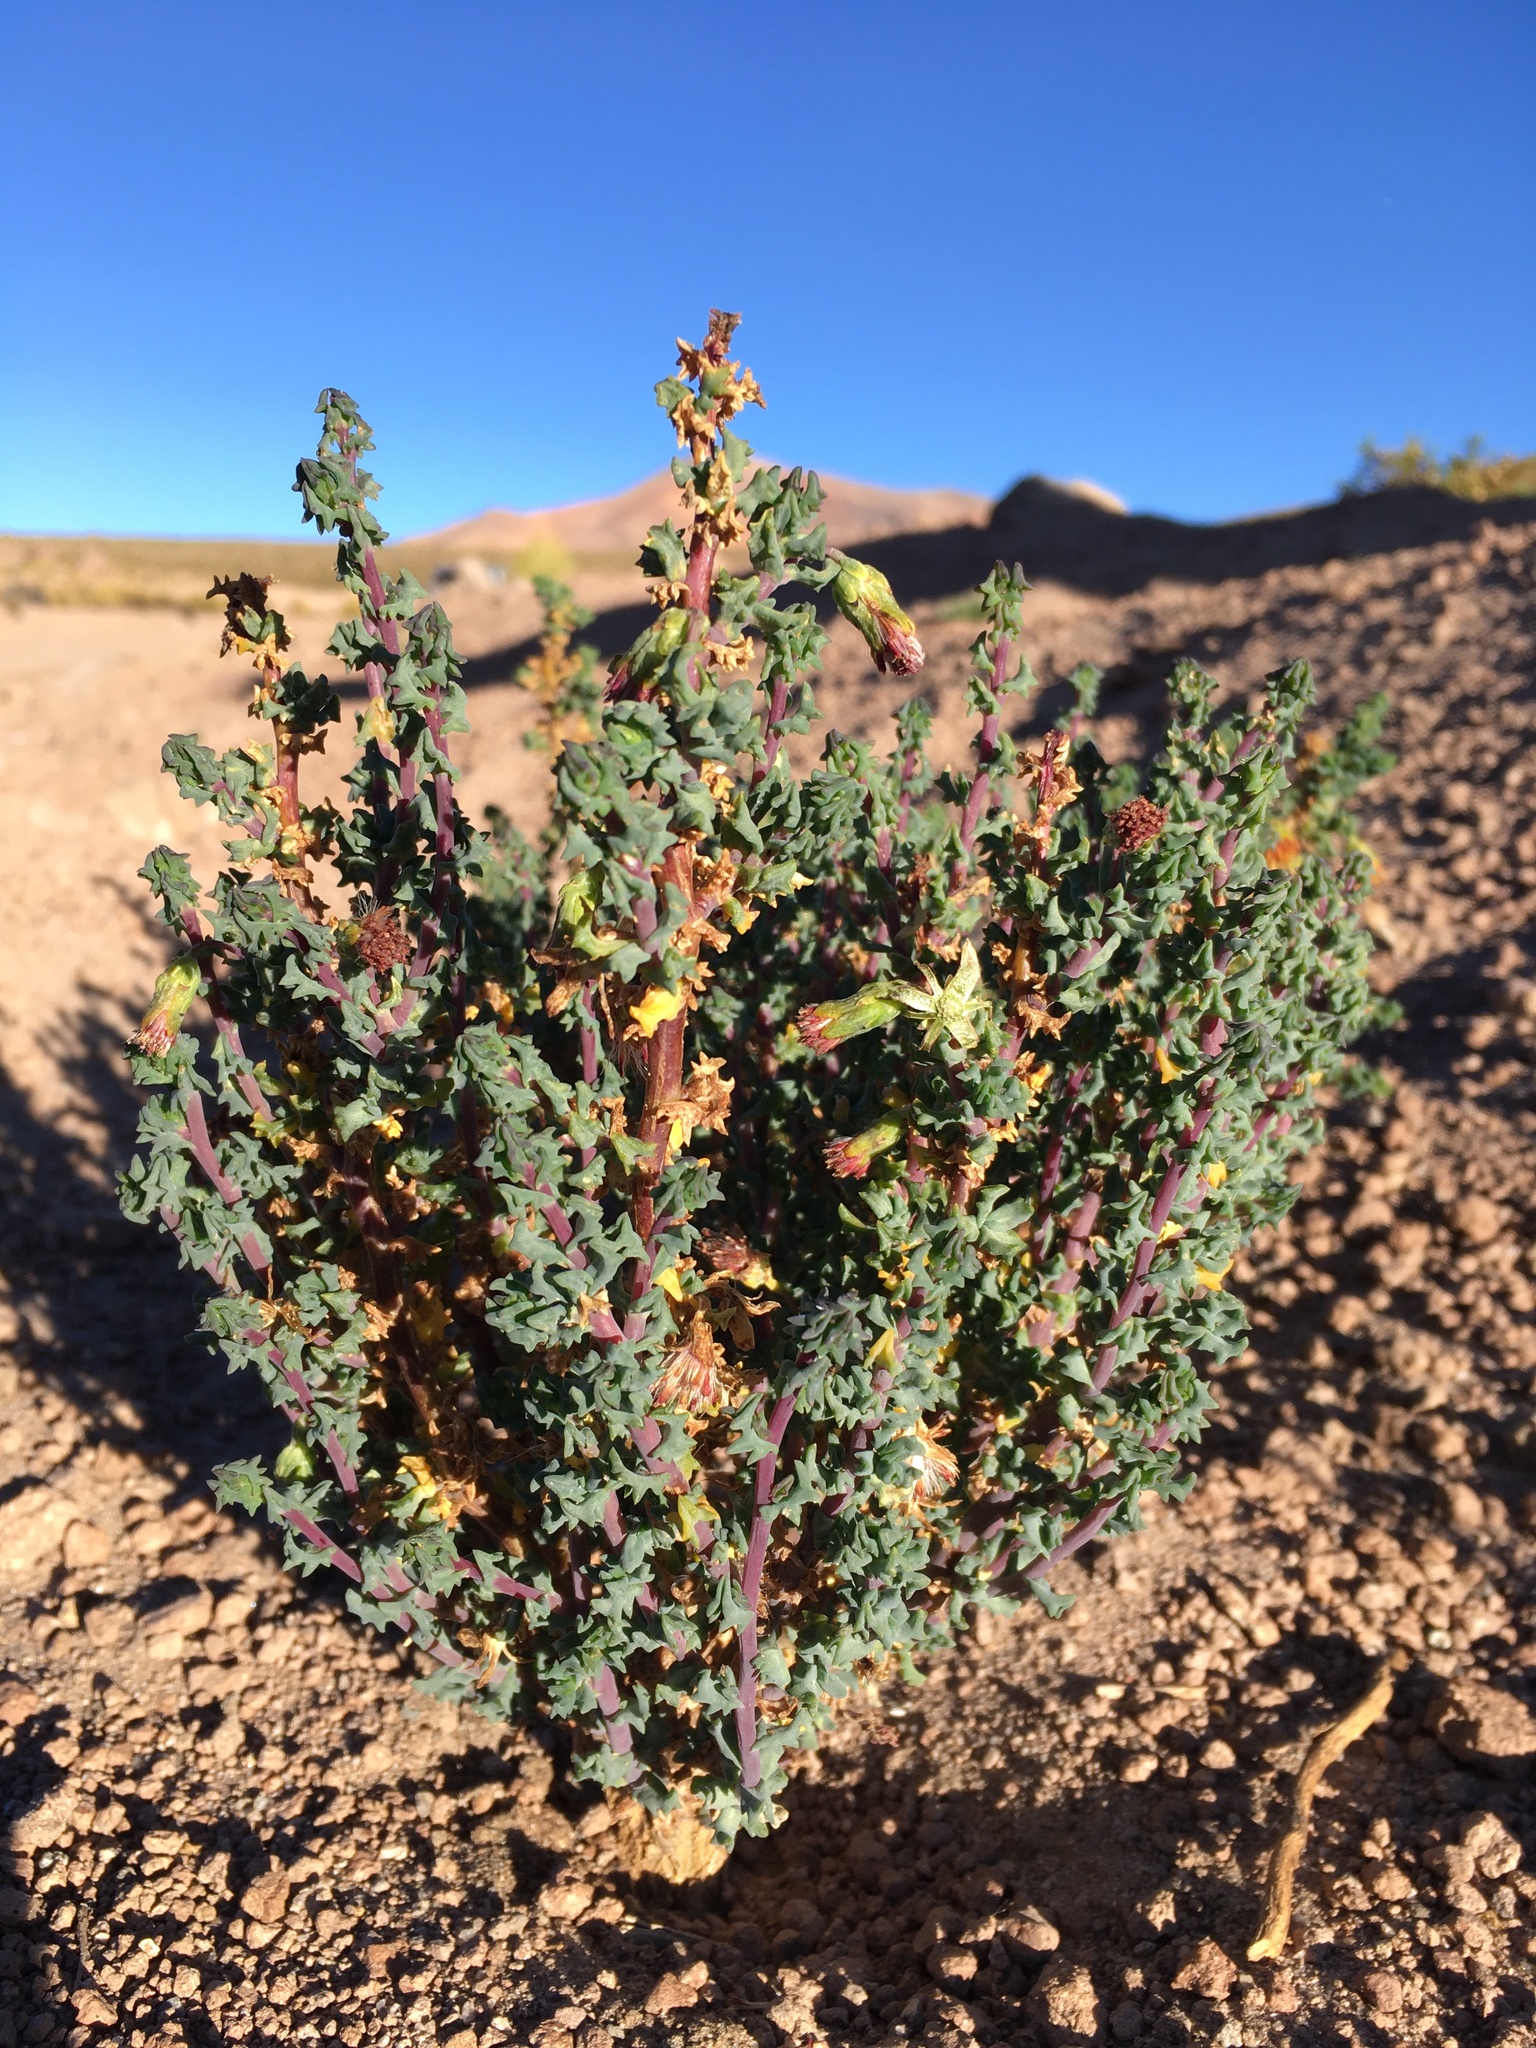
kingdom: Plantae
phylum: Tracheophyta
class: Magnoliopsida
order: Asterales
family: Asteraceae
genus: Senecio
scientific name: Senecio nutans
